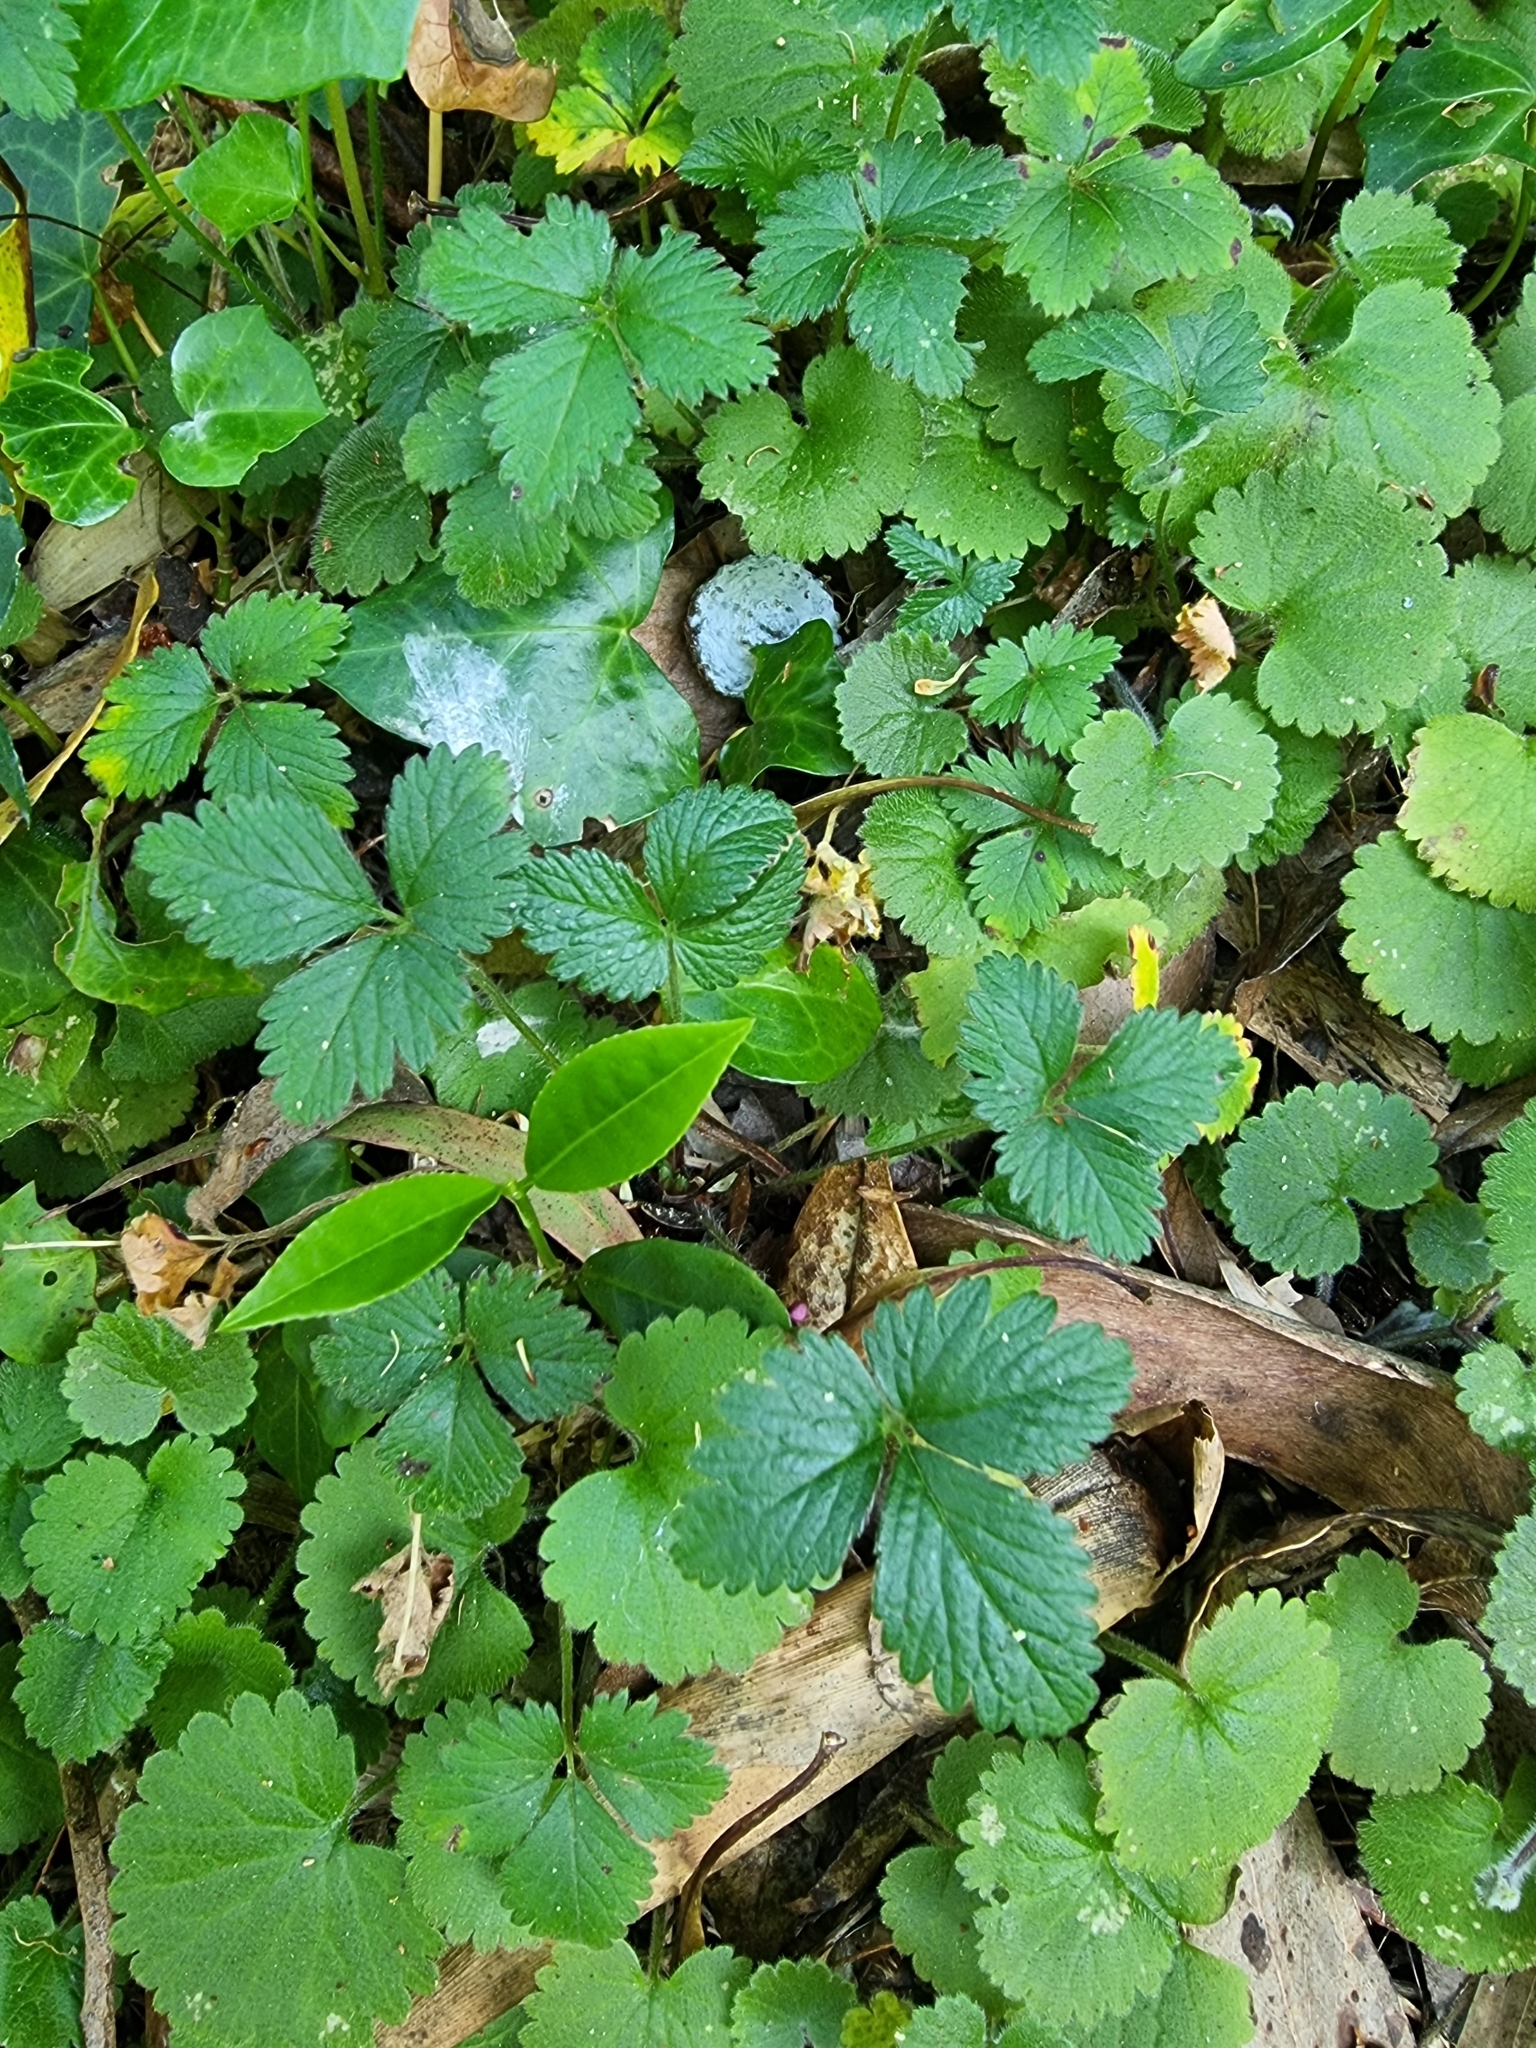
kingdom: Plantae
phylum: Tracheophyta
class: Magnoliopsida
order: Rosales
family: Rosaceae
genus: Potentilla
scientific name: Potentilla indica
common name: Yellow-flowered strawberry
